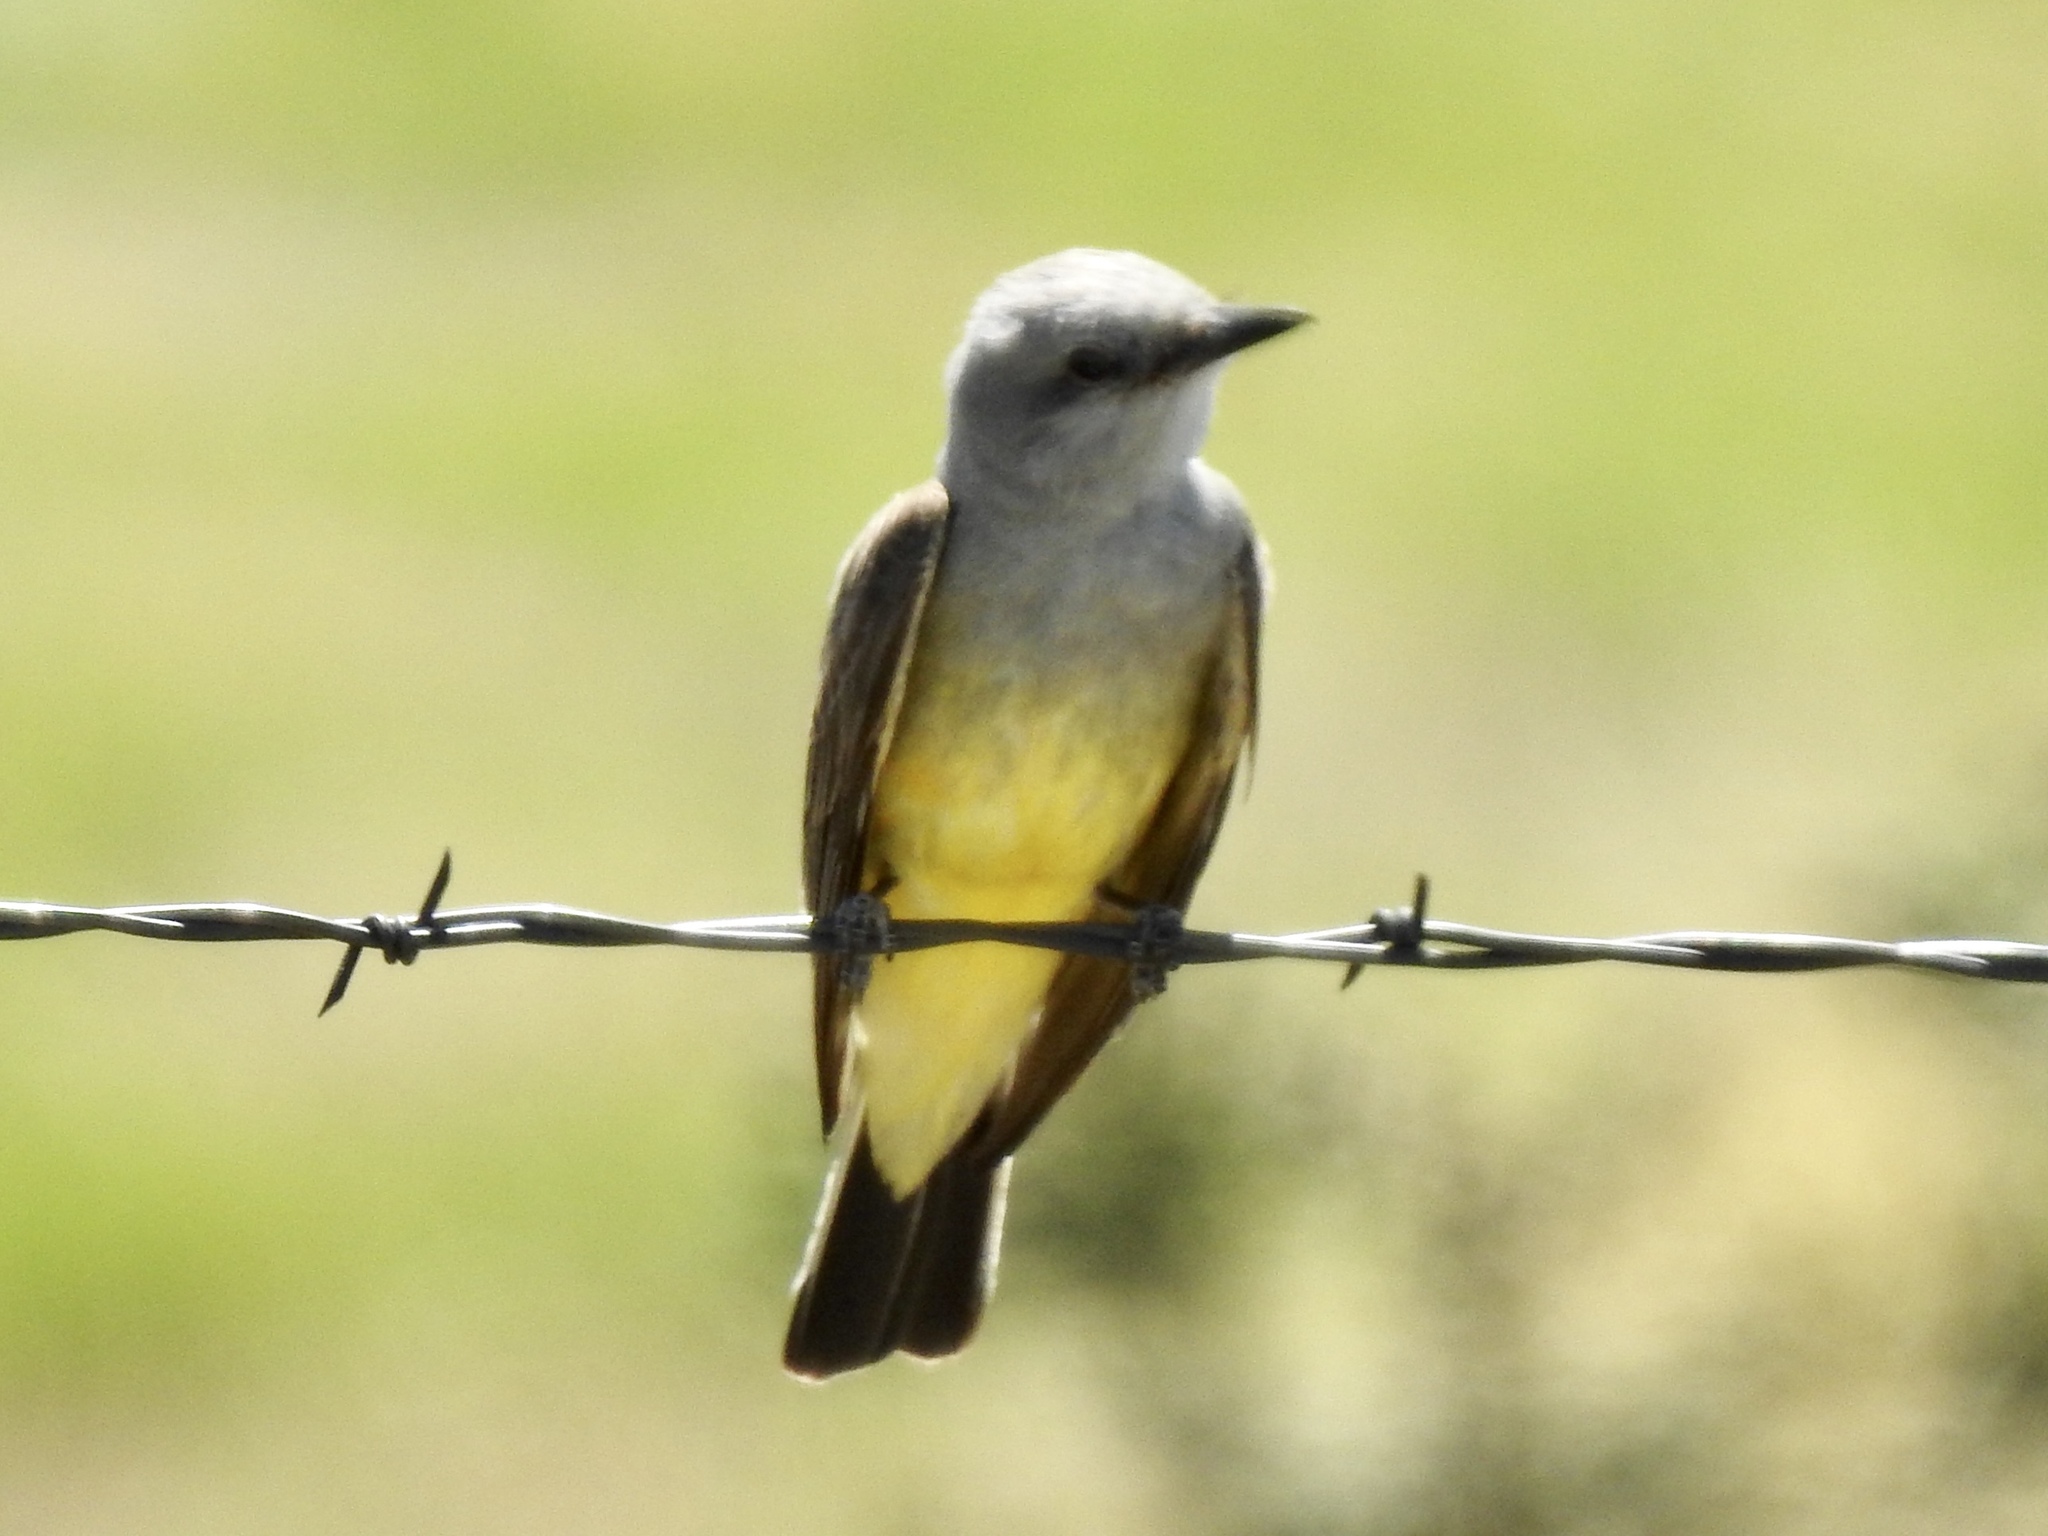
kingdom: Animalia
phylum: Chordata
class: Aves
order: Passeriformes
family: Tyrannidae
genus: Tyrannus
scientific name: Tyrannus verticalis
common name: Western kingbird
